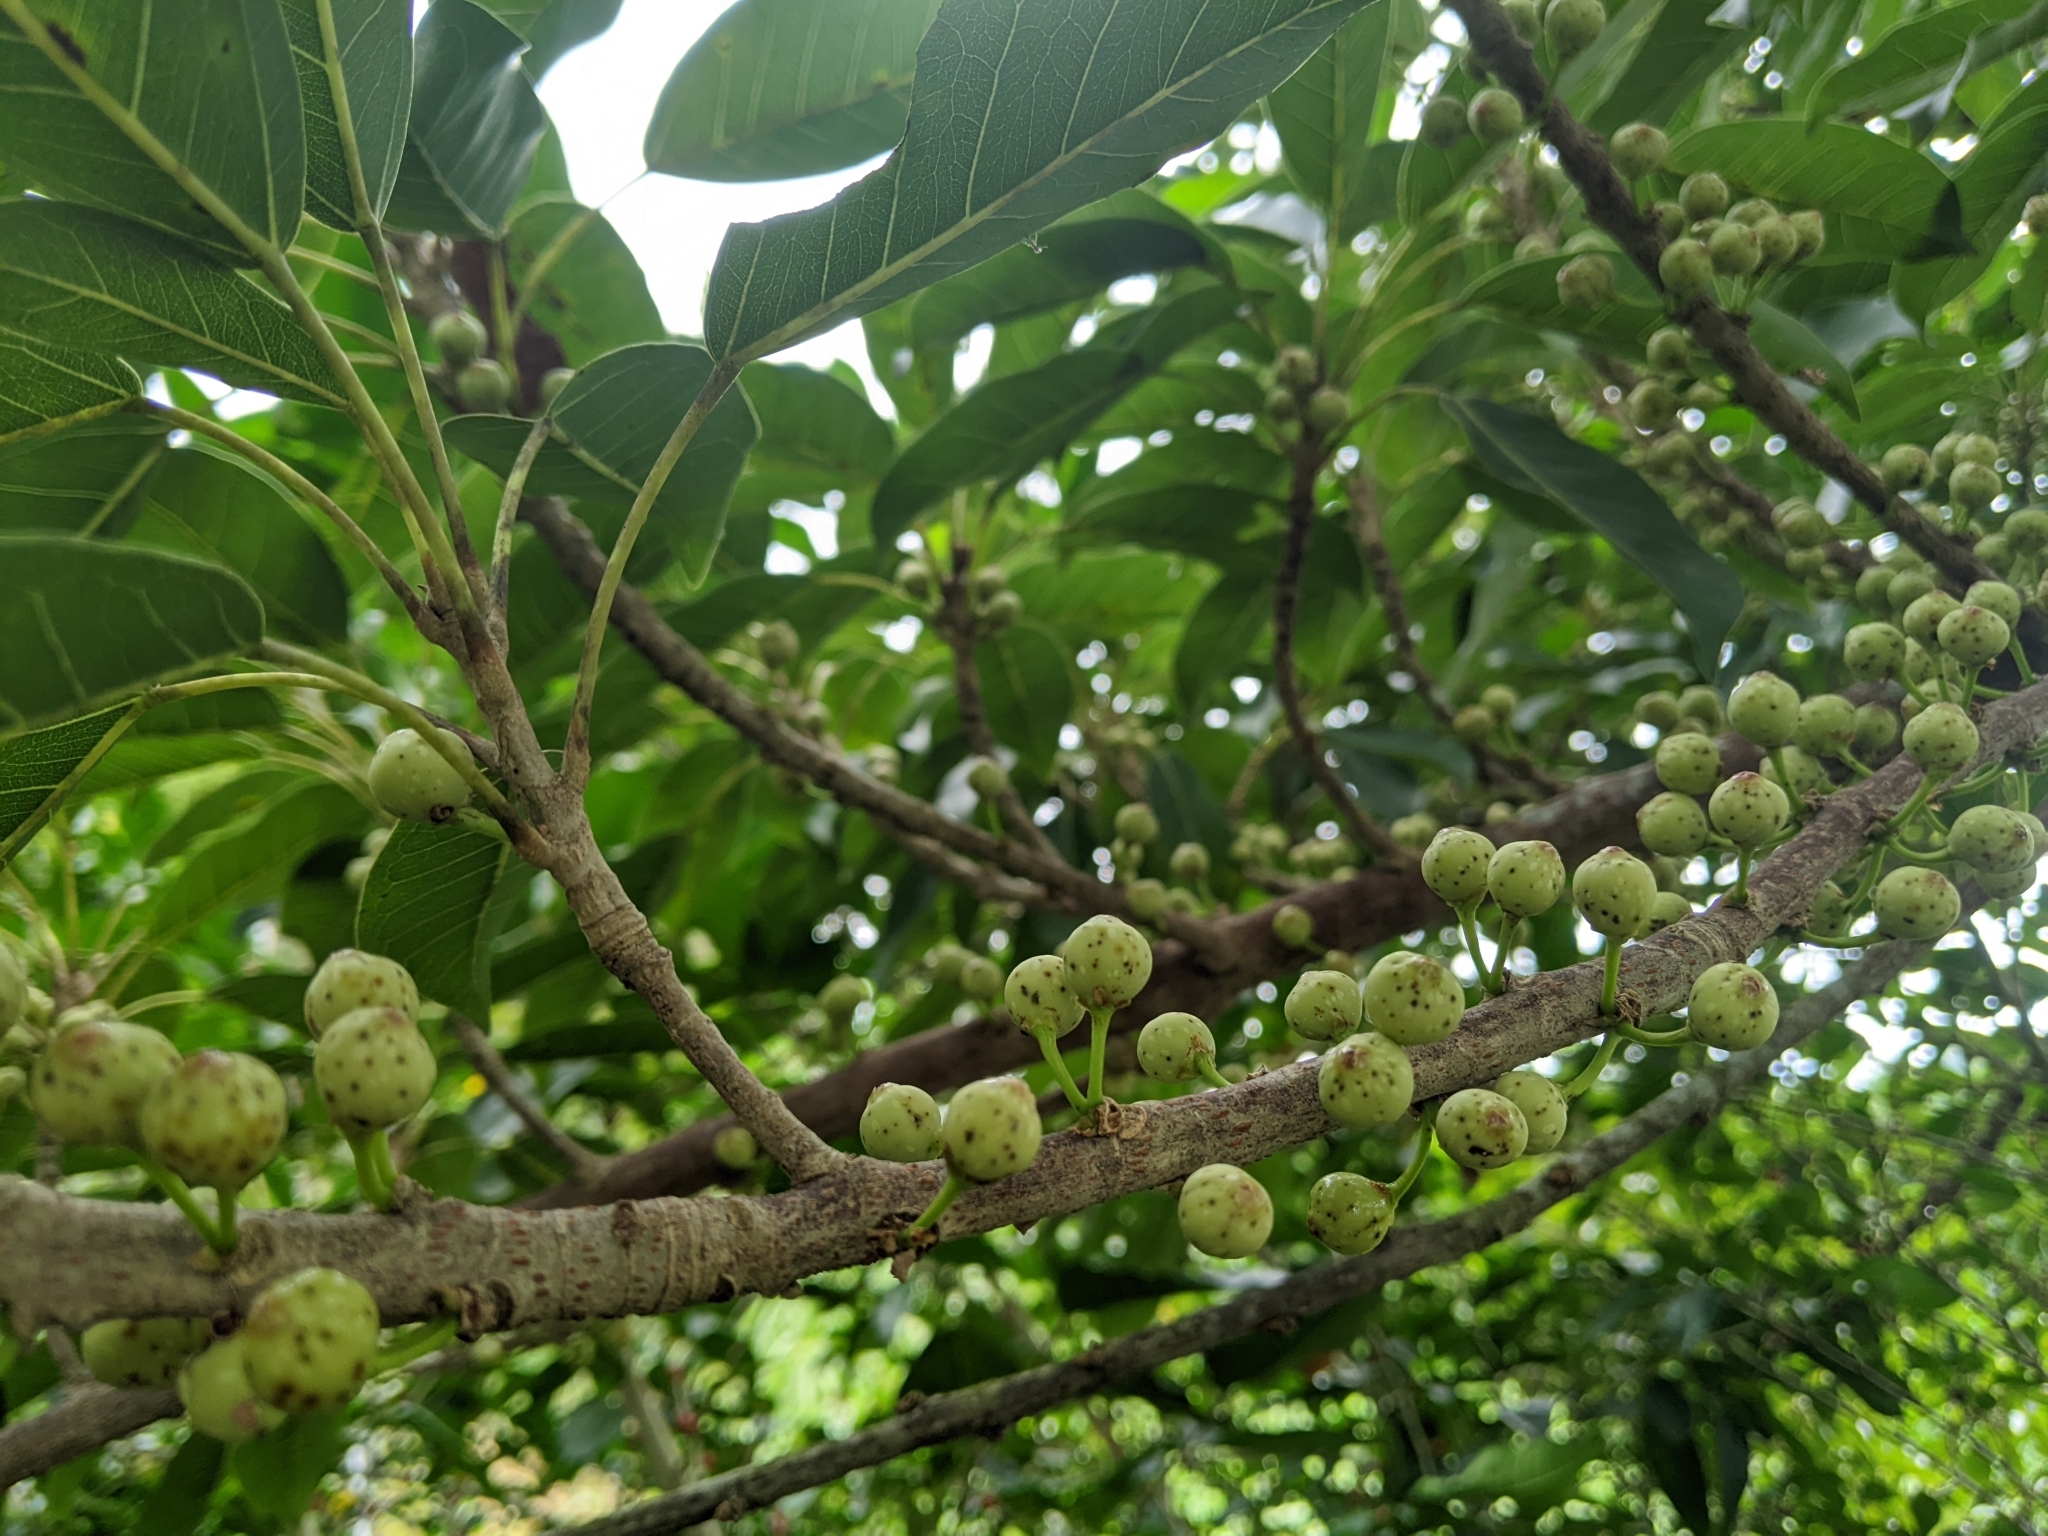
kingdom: Plantae
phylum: Tracheophyta
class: Magnoliopsida
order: Rosales
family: Moraceae
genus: Ficus
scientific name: Ficus subpisocarpa
